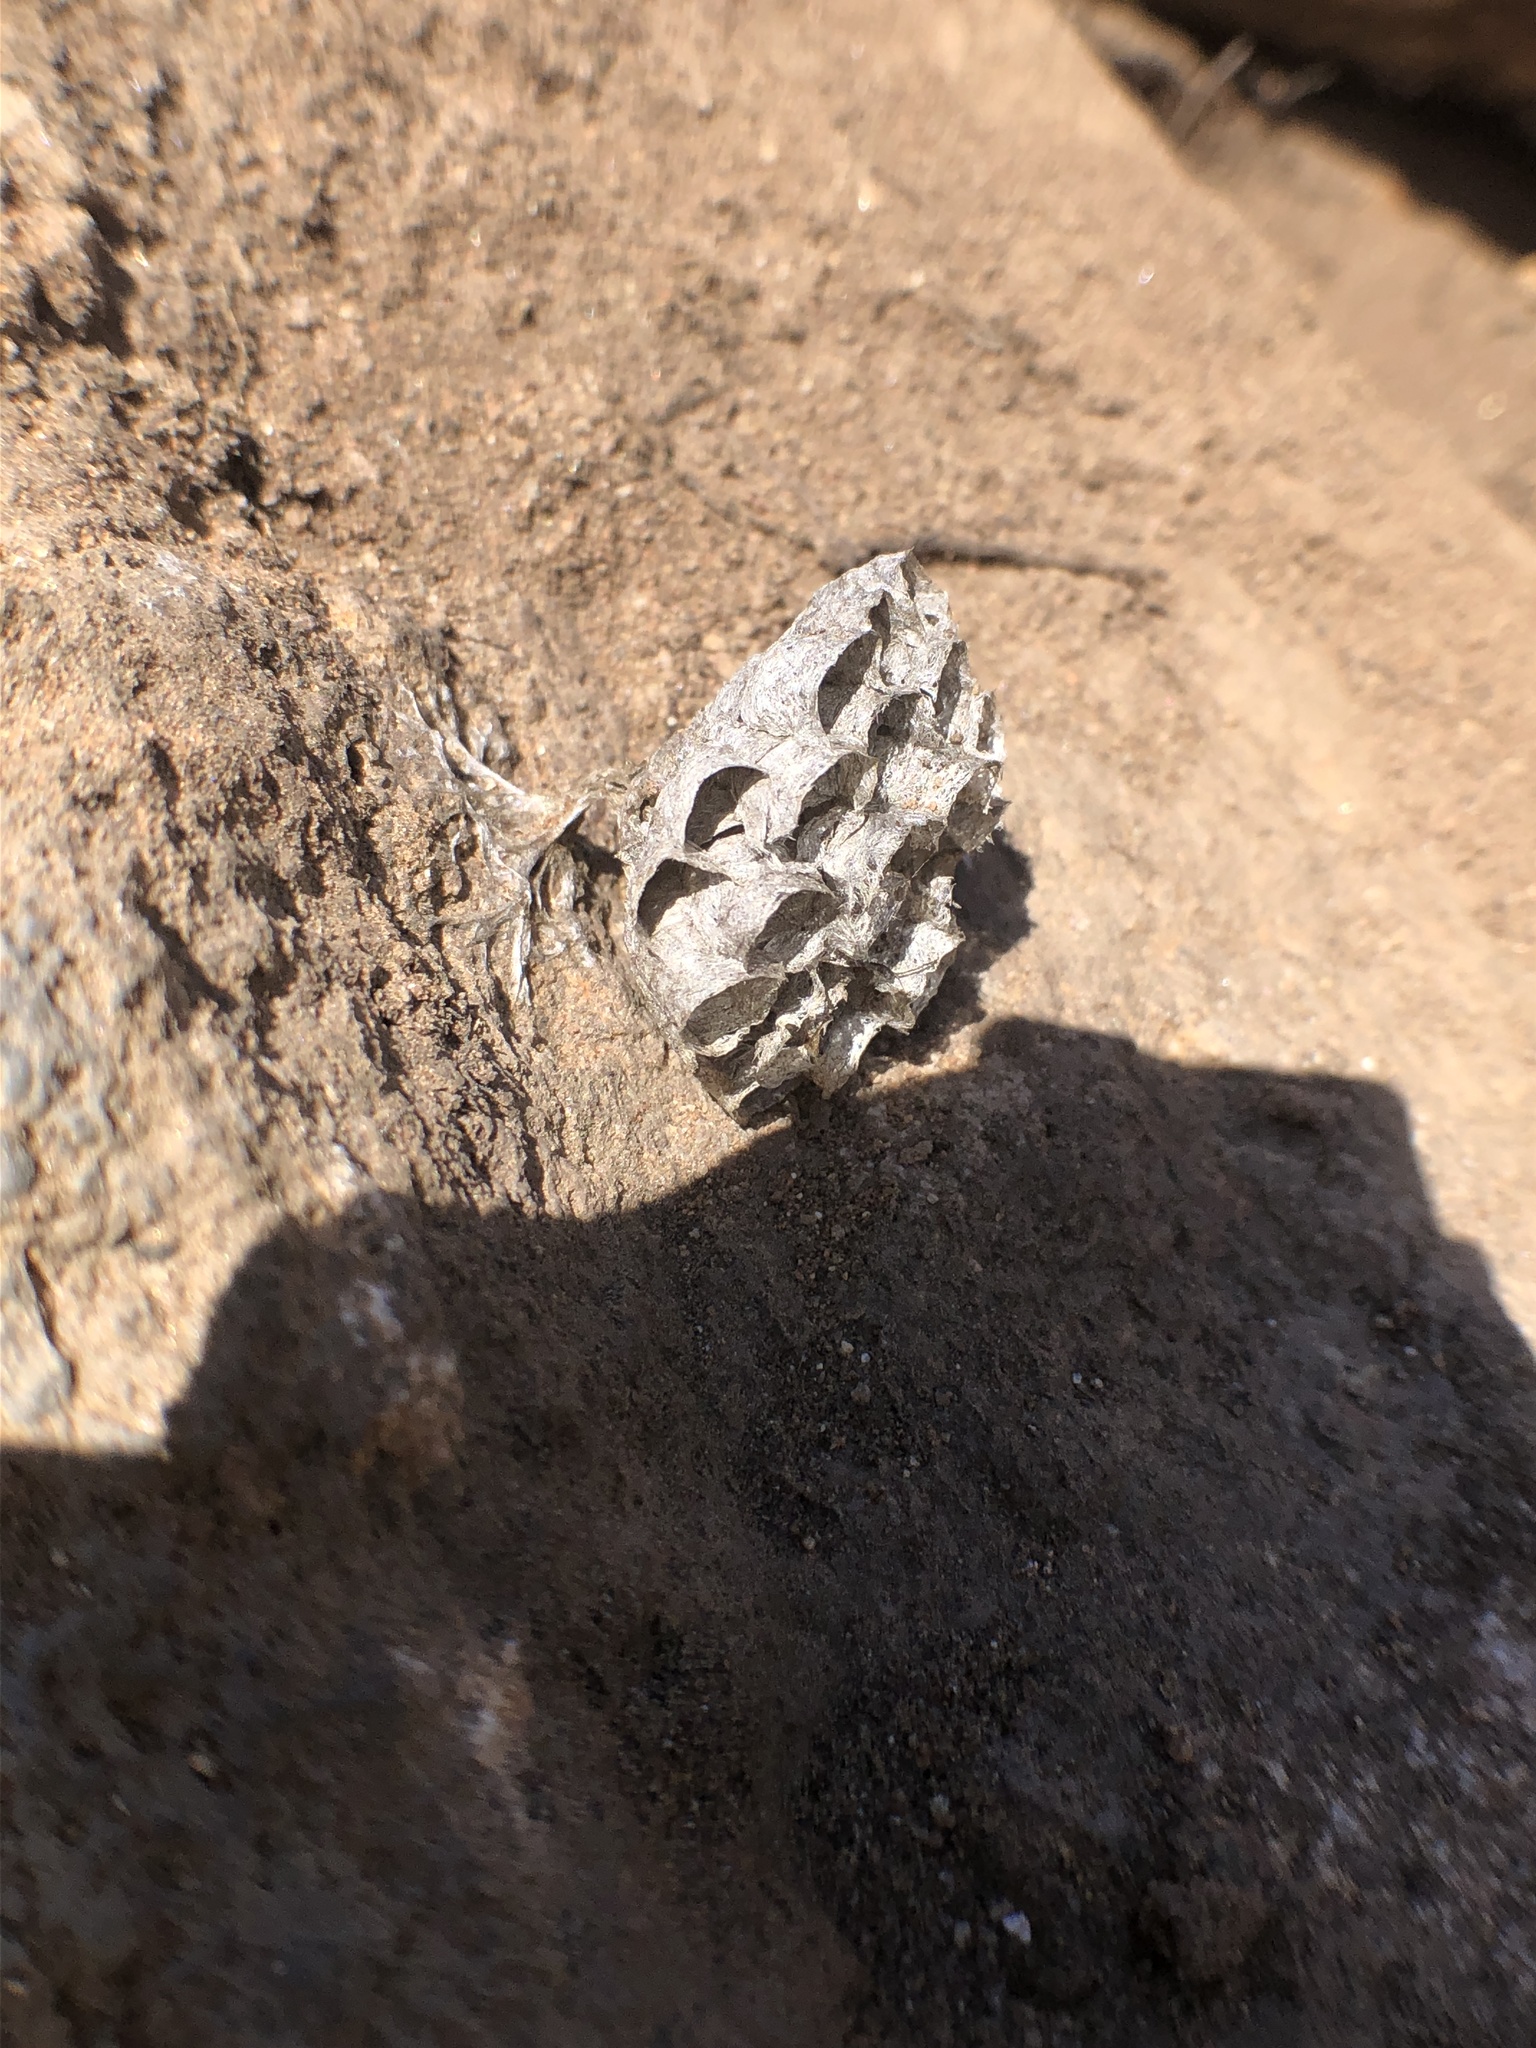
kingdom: Animalia
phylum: Arthropoda
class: Insecta
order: Hymenoptera
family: Eumenidae
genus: Polistes
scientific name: Polistes
